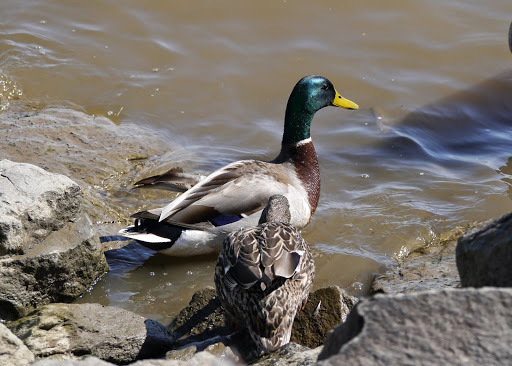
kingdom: Animalia
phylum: Chordata
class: Aves
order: Anseriformes
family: Anatidae
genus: Anas
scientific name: Anas platyrhynchos
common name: Mallard
